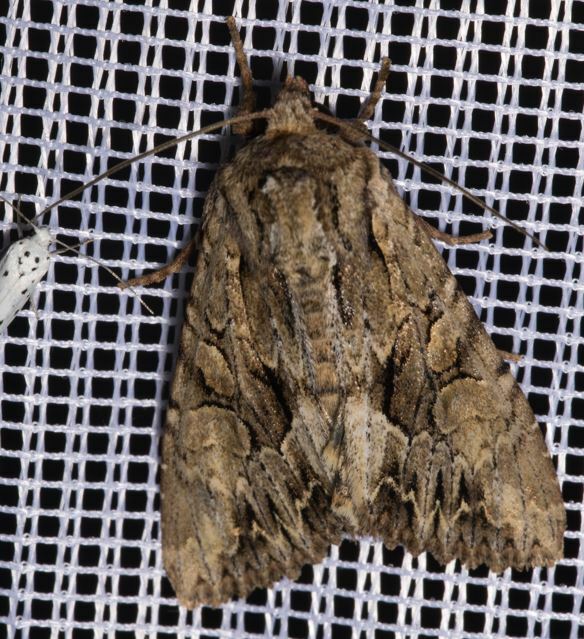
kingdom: Animalia
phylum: Arthropoda
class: Insecta
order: Lepidoptera
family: Noctuidae
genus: Apamea
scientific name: Apamea monoglypha
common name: Dark arches
